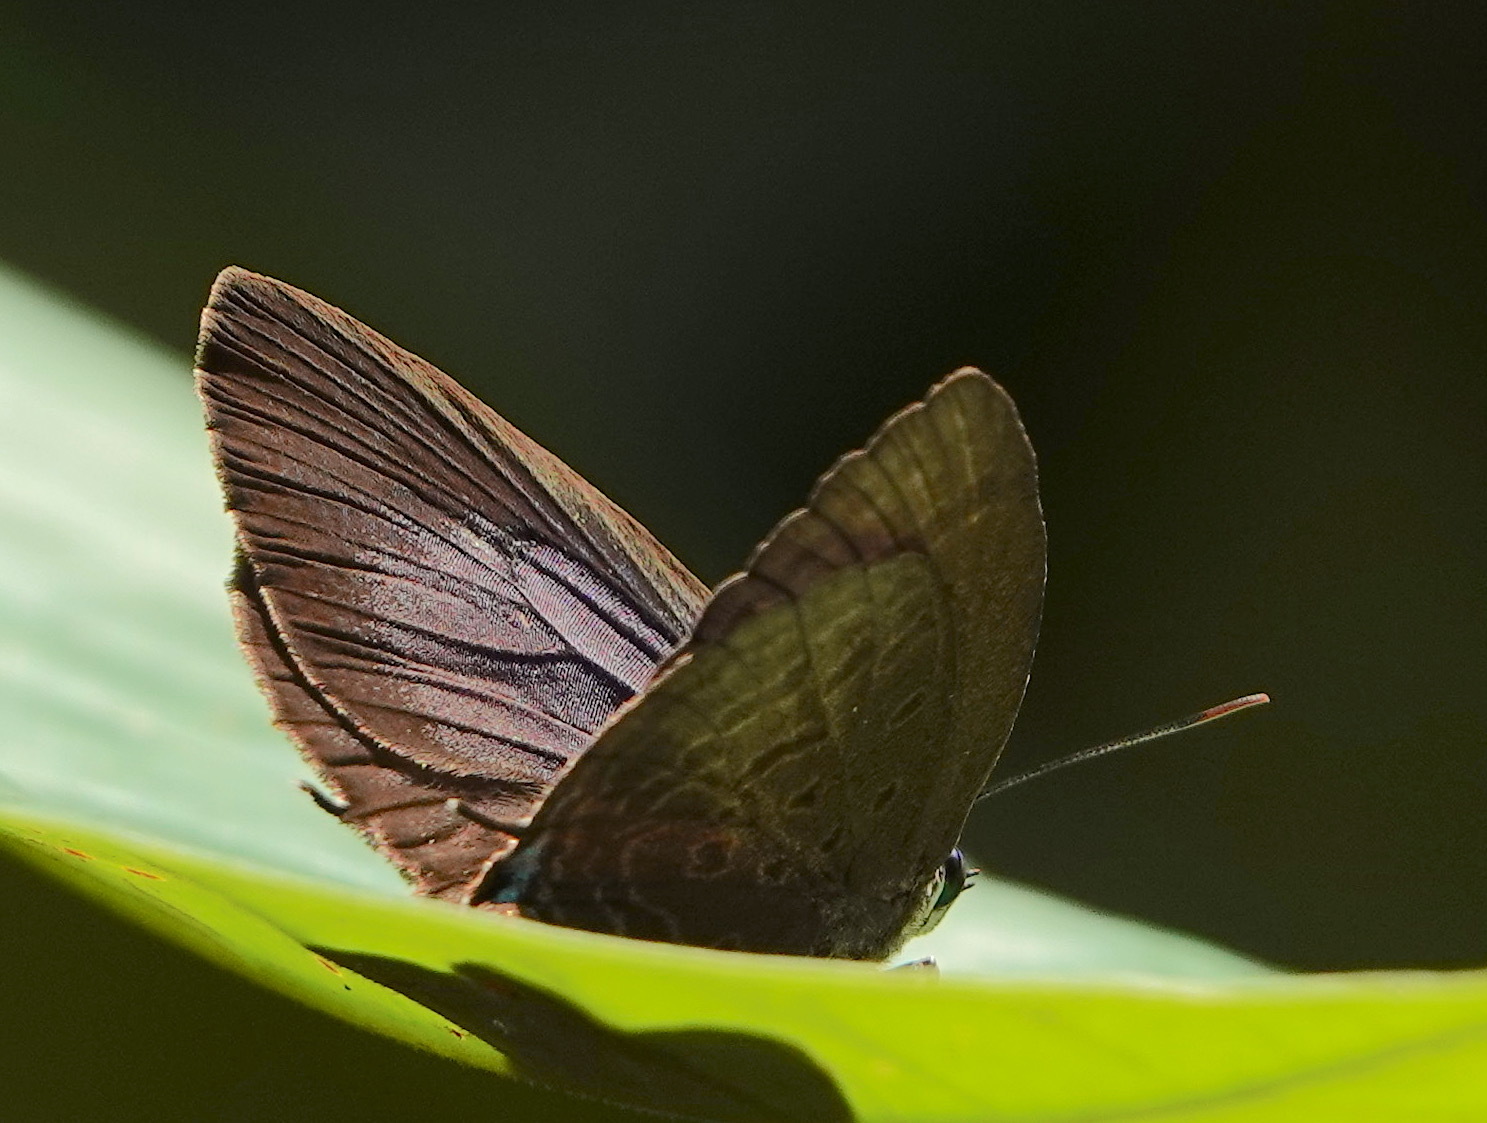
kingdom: Animalia
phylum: Arthropoda
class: Insecta
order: Lepidoptera
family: Lycaenidae
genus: Arhopala
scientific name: Arhopala allata
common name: Rosy oakblue
